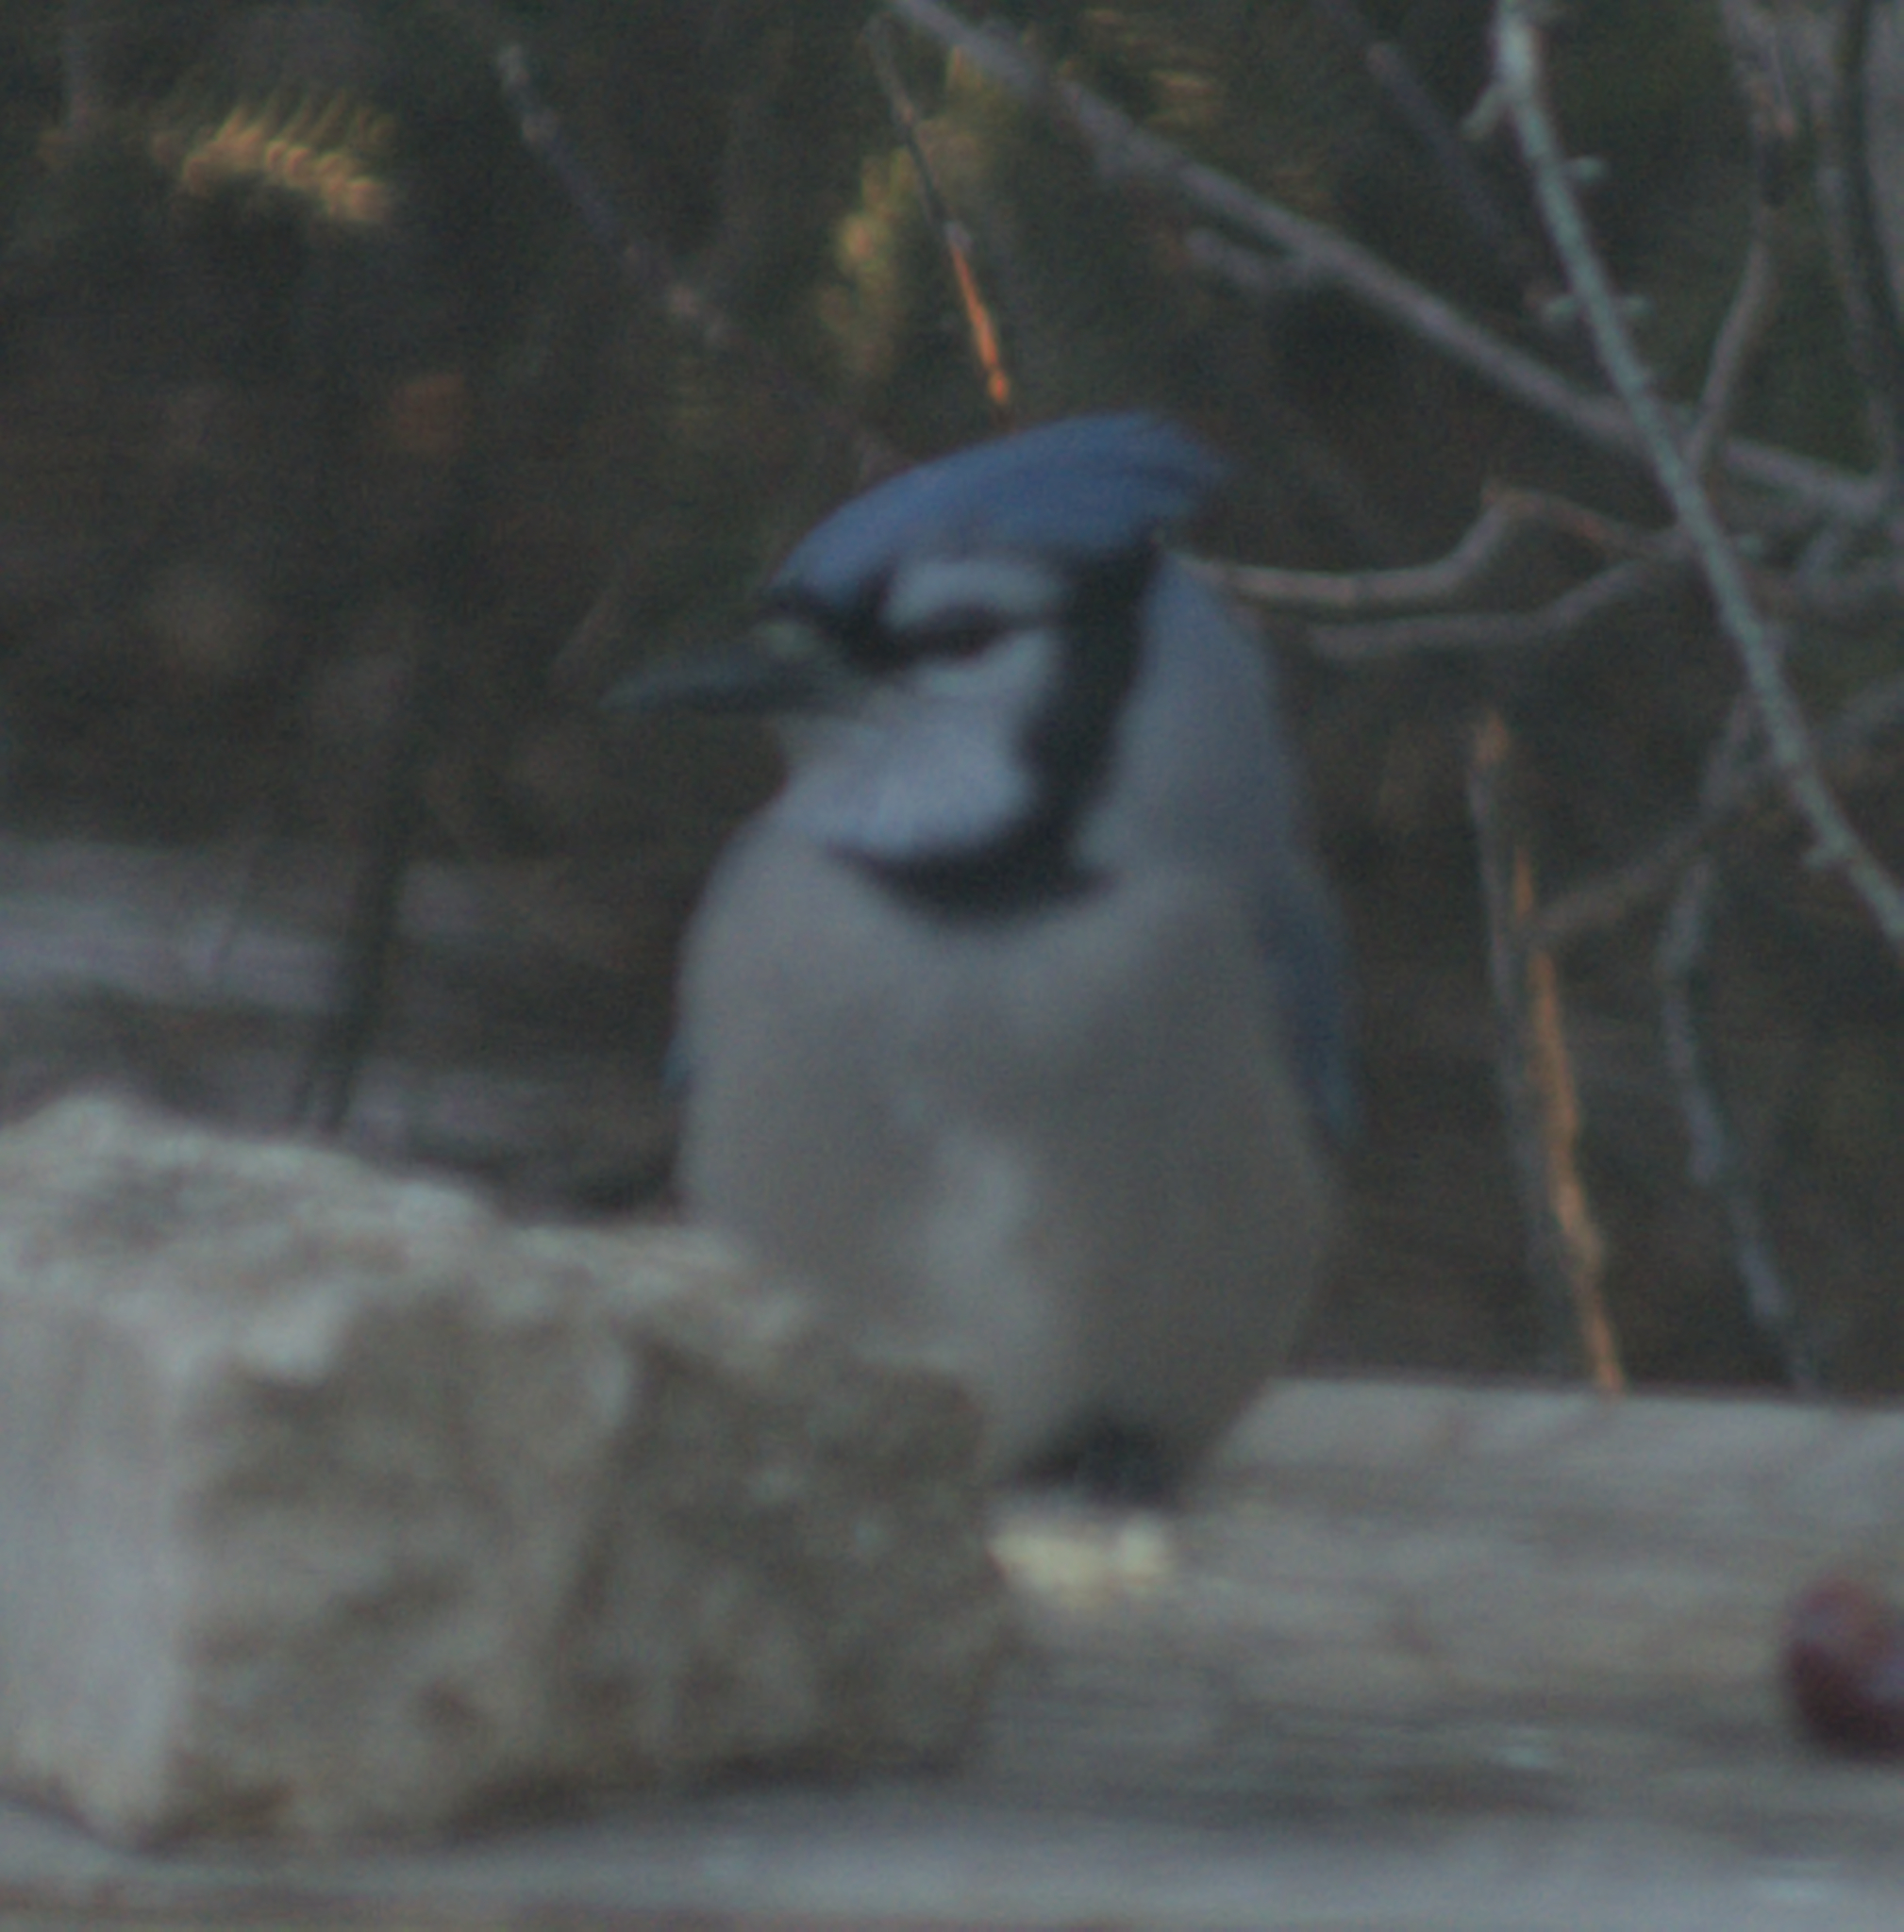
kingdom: Animalia
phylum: Chordata
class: Aves
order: Passeriformes
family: Corvidae
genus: Cyanocitta
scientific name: Cyanocitta cristata
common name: Blue jay
